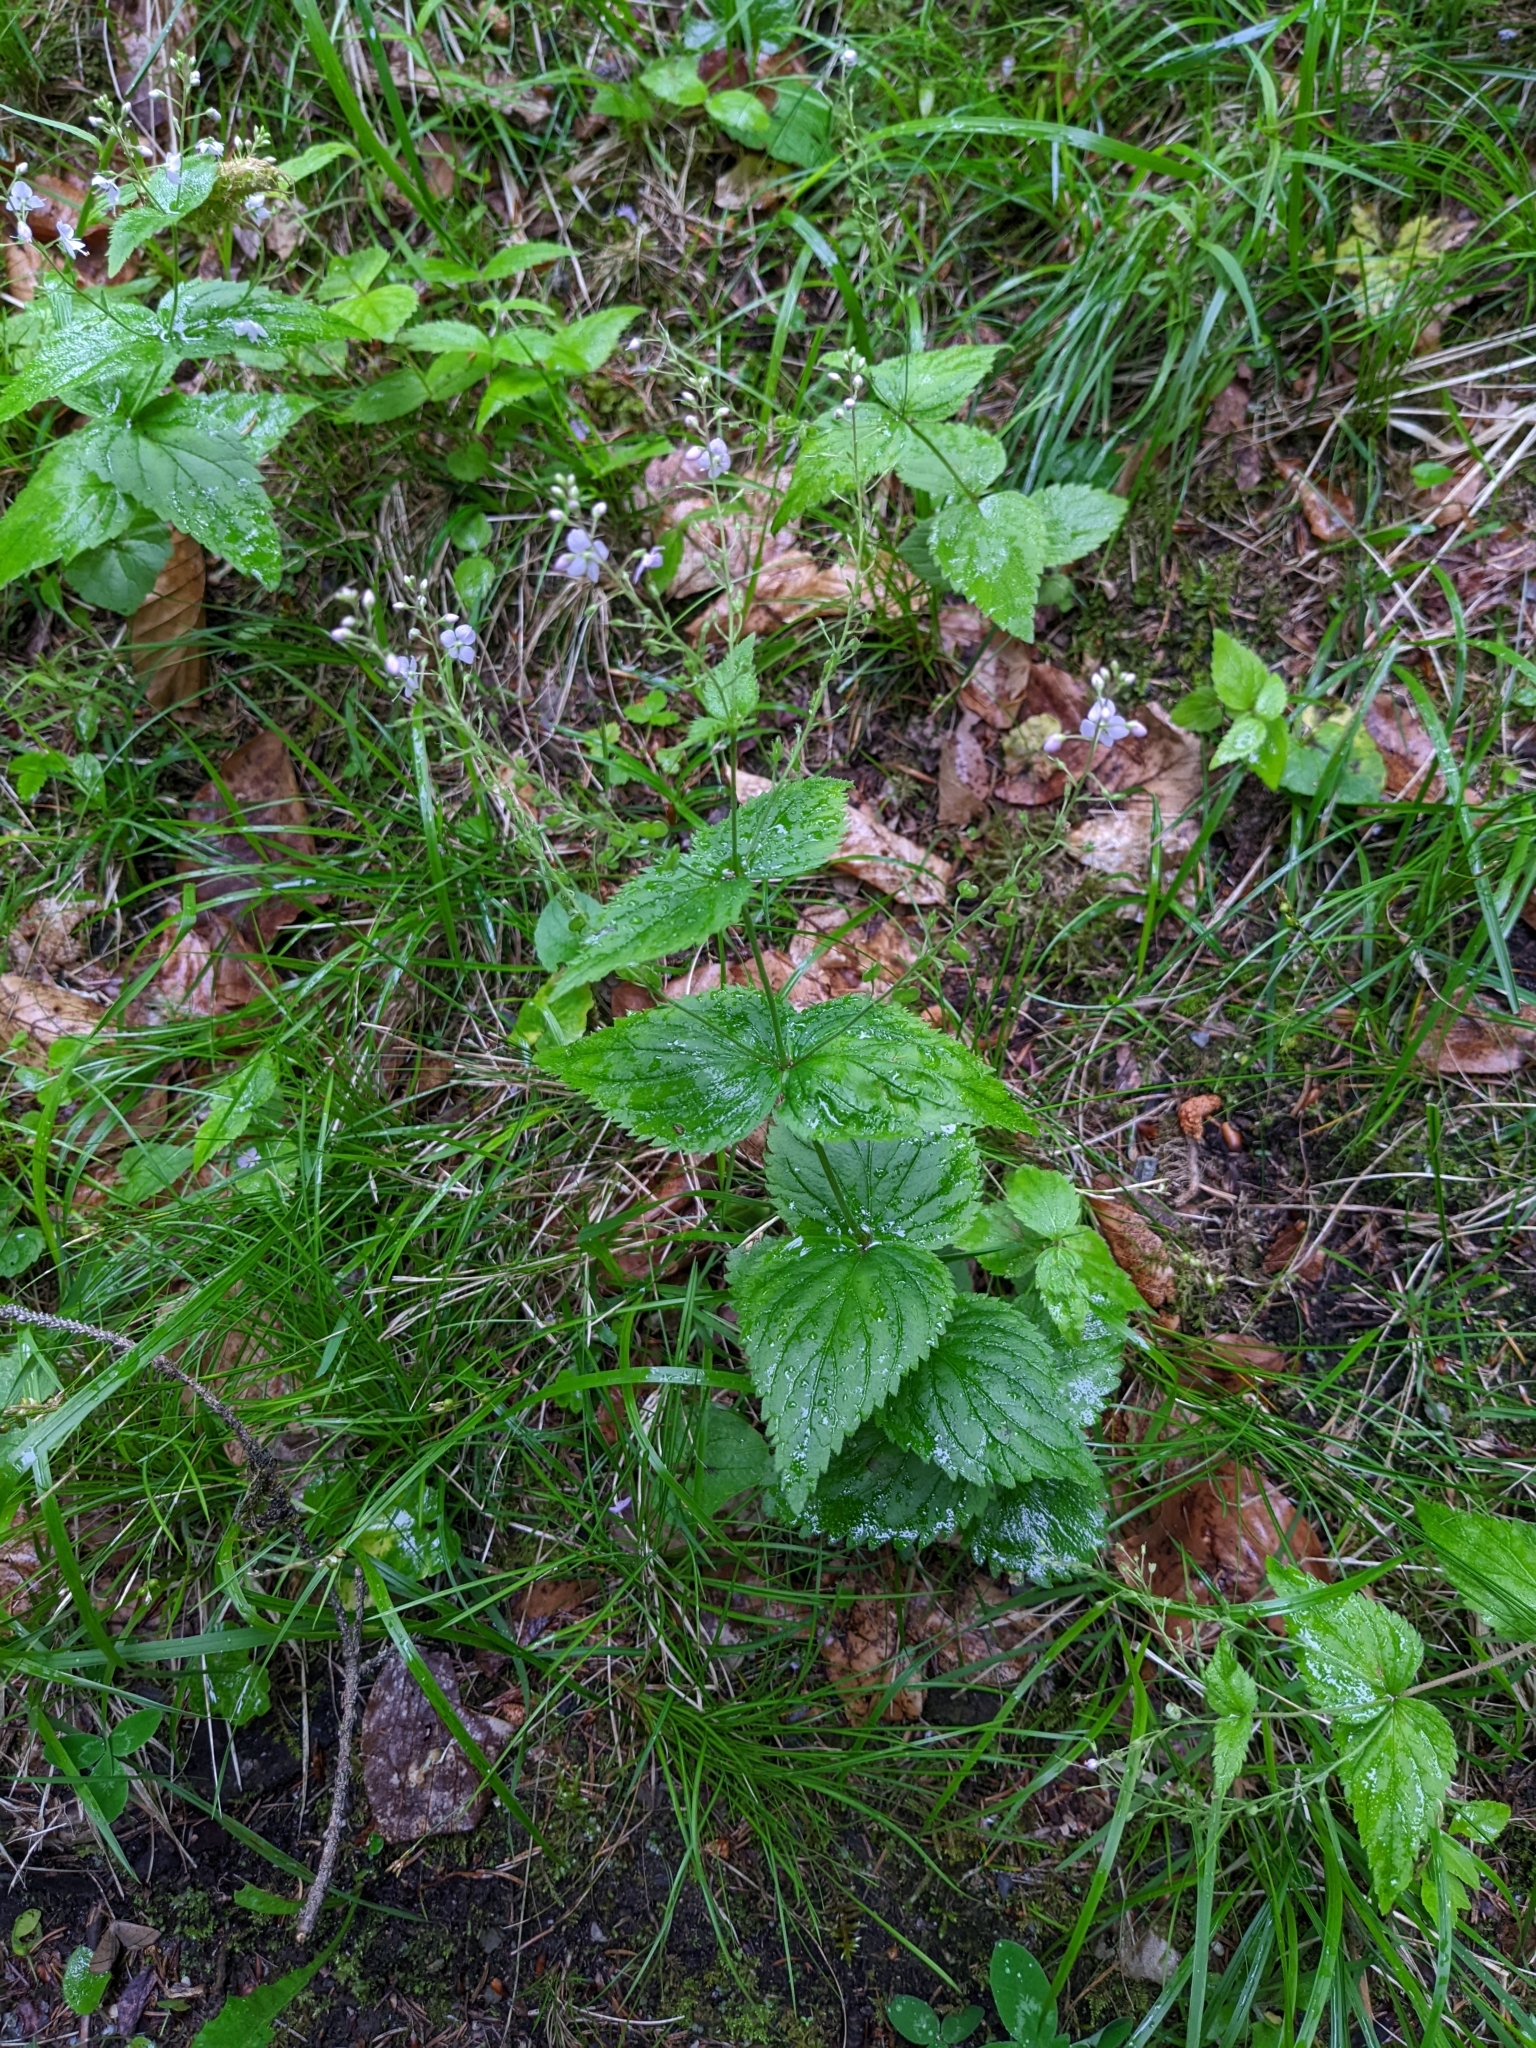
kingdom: Plantae
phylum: Tracheophyta
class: Magnoliopsida
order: Lamiales
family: Plantaginaceae
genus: Veronica
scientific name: Veronica urticifolia
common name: Nettle-leaf speedwell
